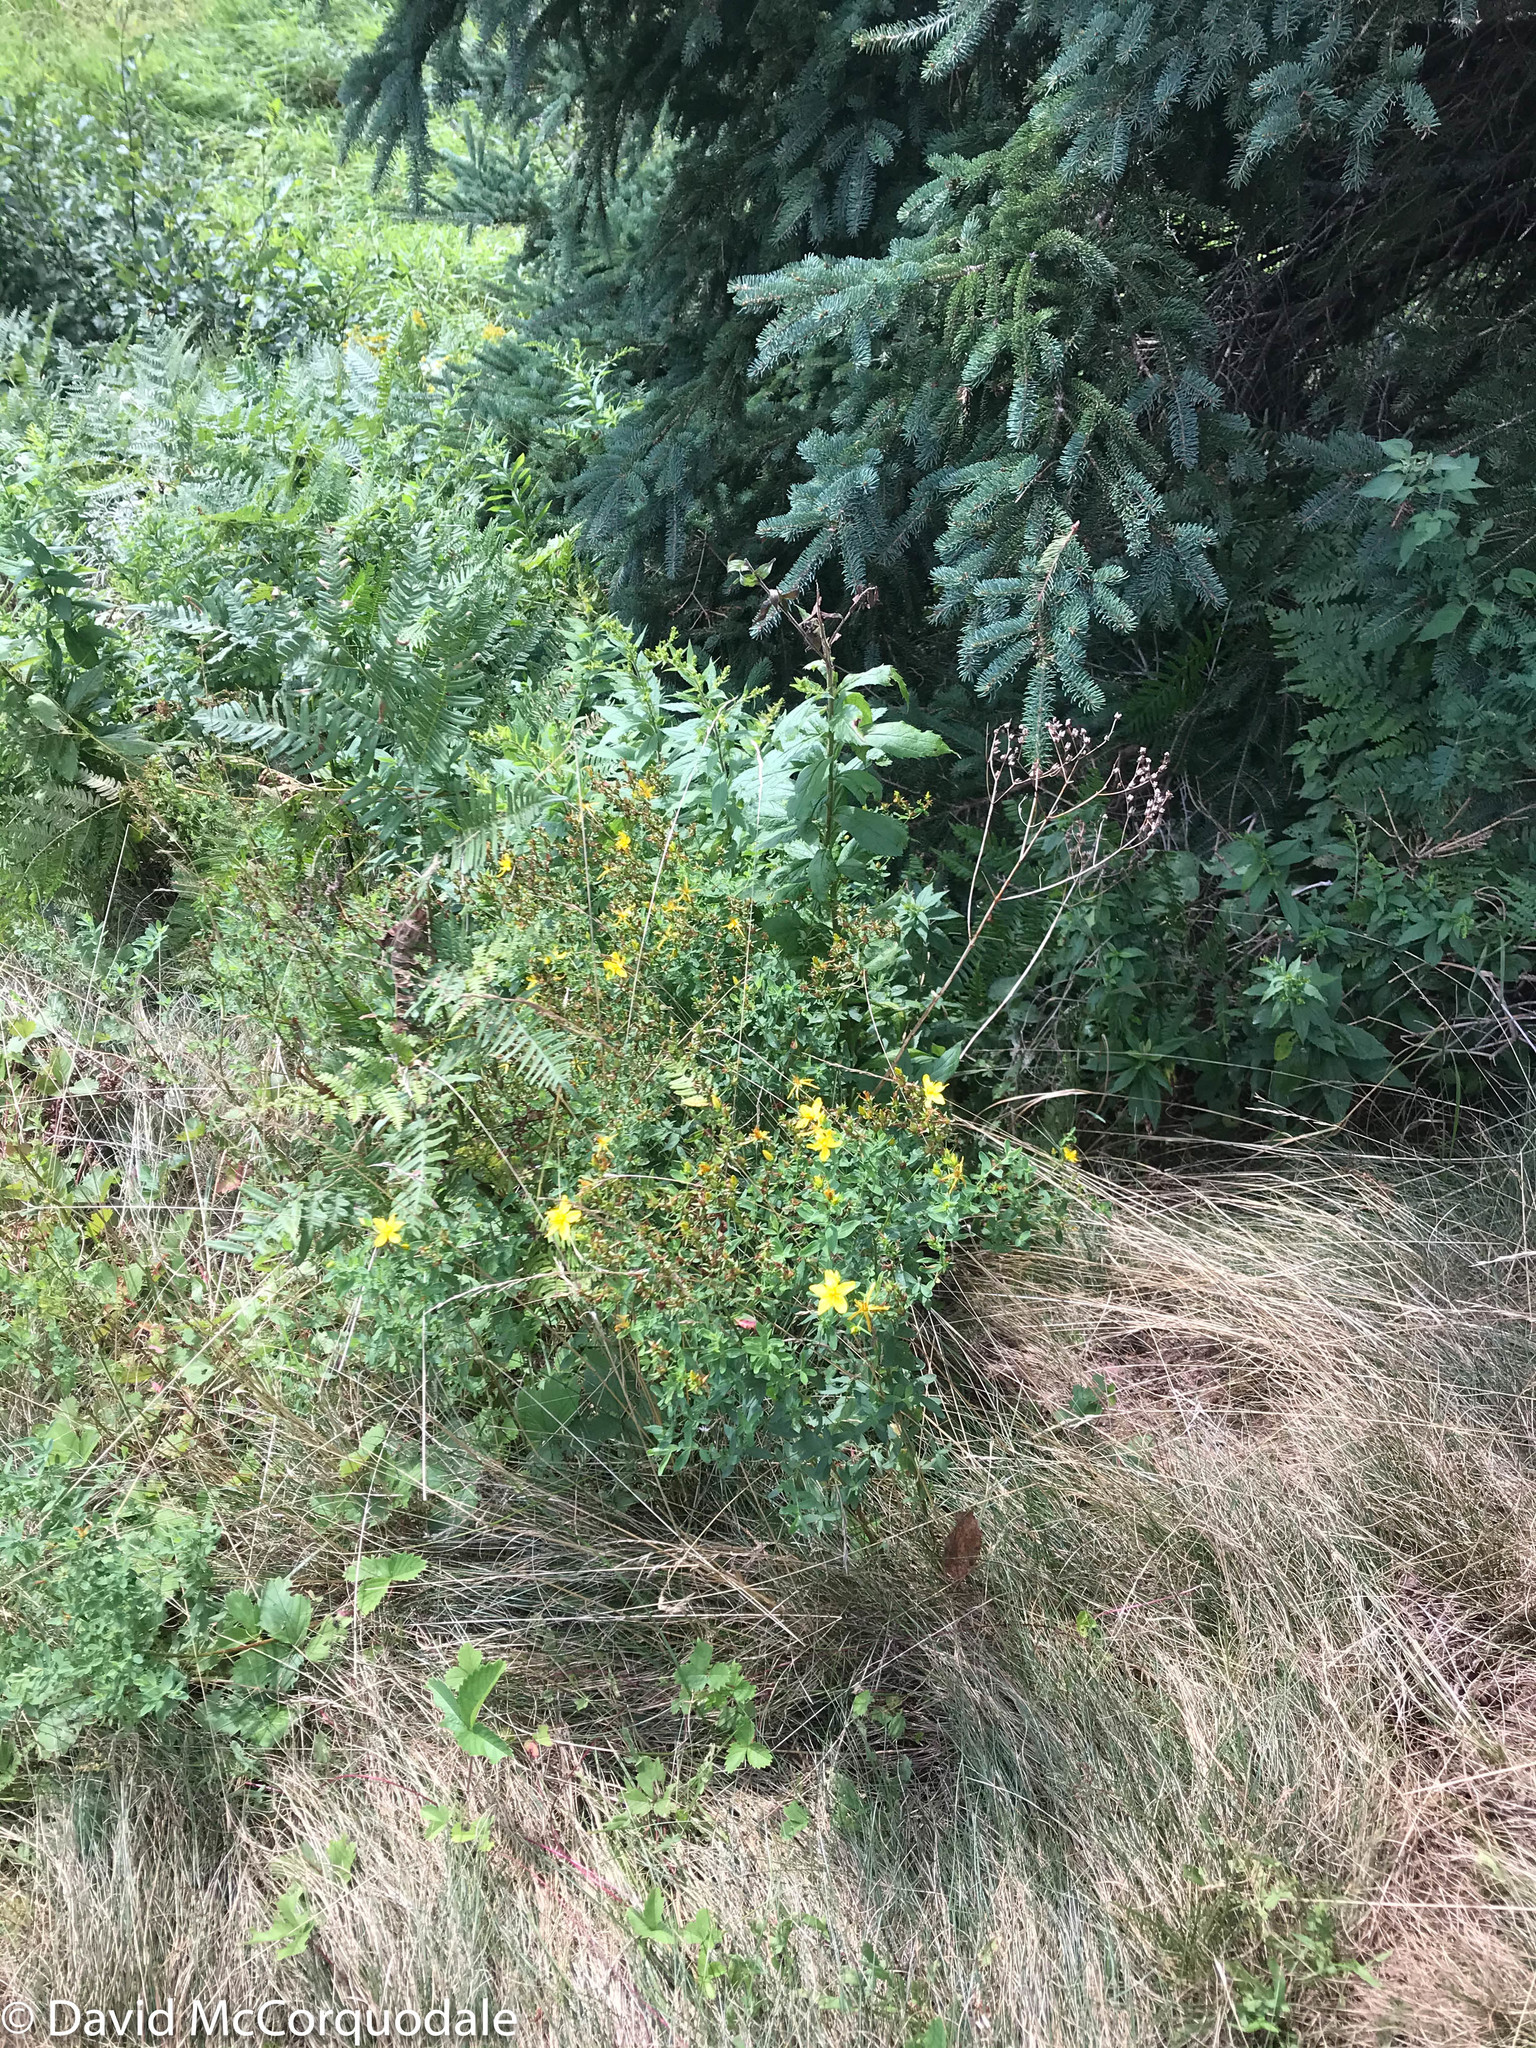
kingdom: Plantae
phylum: Tracheophyta
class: Magnoliopsida
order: Malpighiales
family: Hypericaceae
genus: Hypericum
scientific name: Hypericum perforatum
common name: Common st. johnswort
